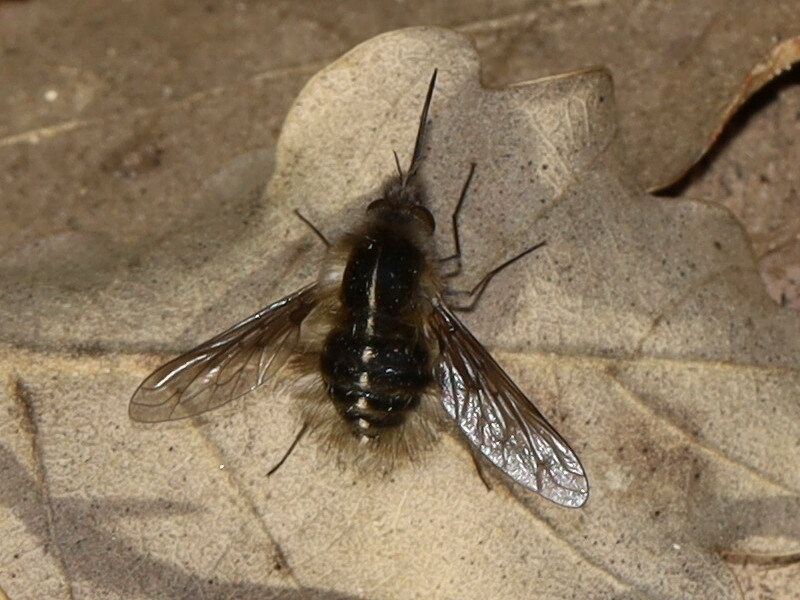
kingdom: Animalia
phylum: Arthropoda
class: Insecta
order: Diptera
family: Bombyliidae
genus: Bombylius
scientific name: Bombylius analis
